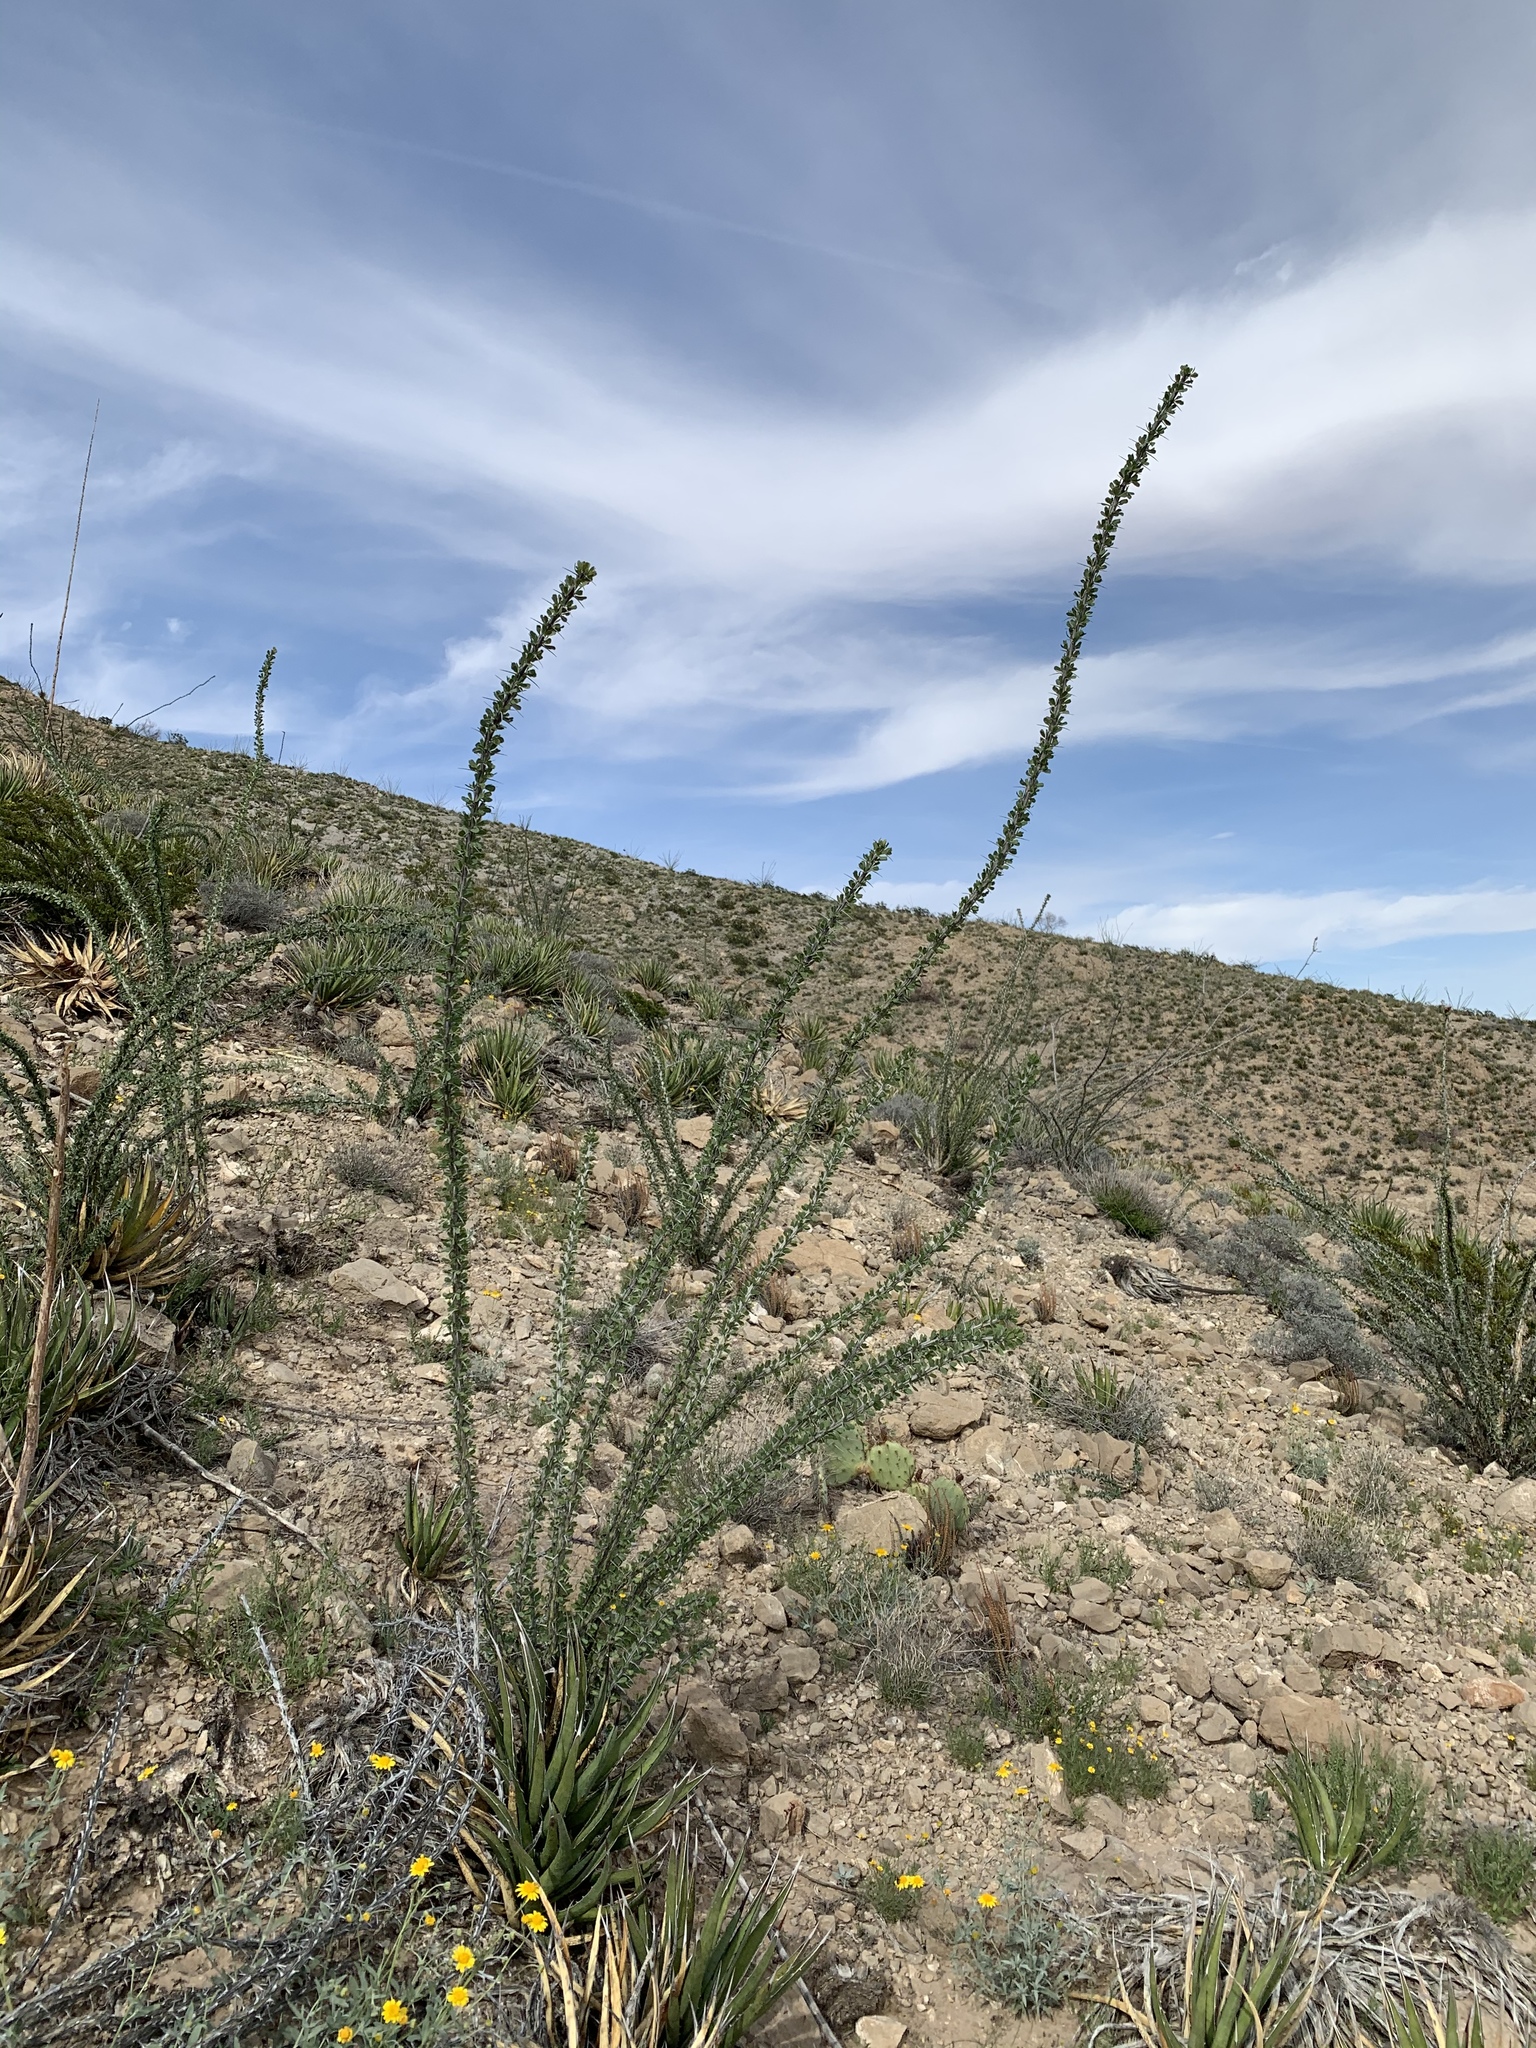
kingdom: Plantae
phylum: Tracheophyta
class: Magnoliopsida
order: Ericales
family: Fouquieriaceae
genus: Fouquieria
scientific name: Fouquieria splendens
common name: Vine-cactus
